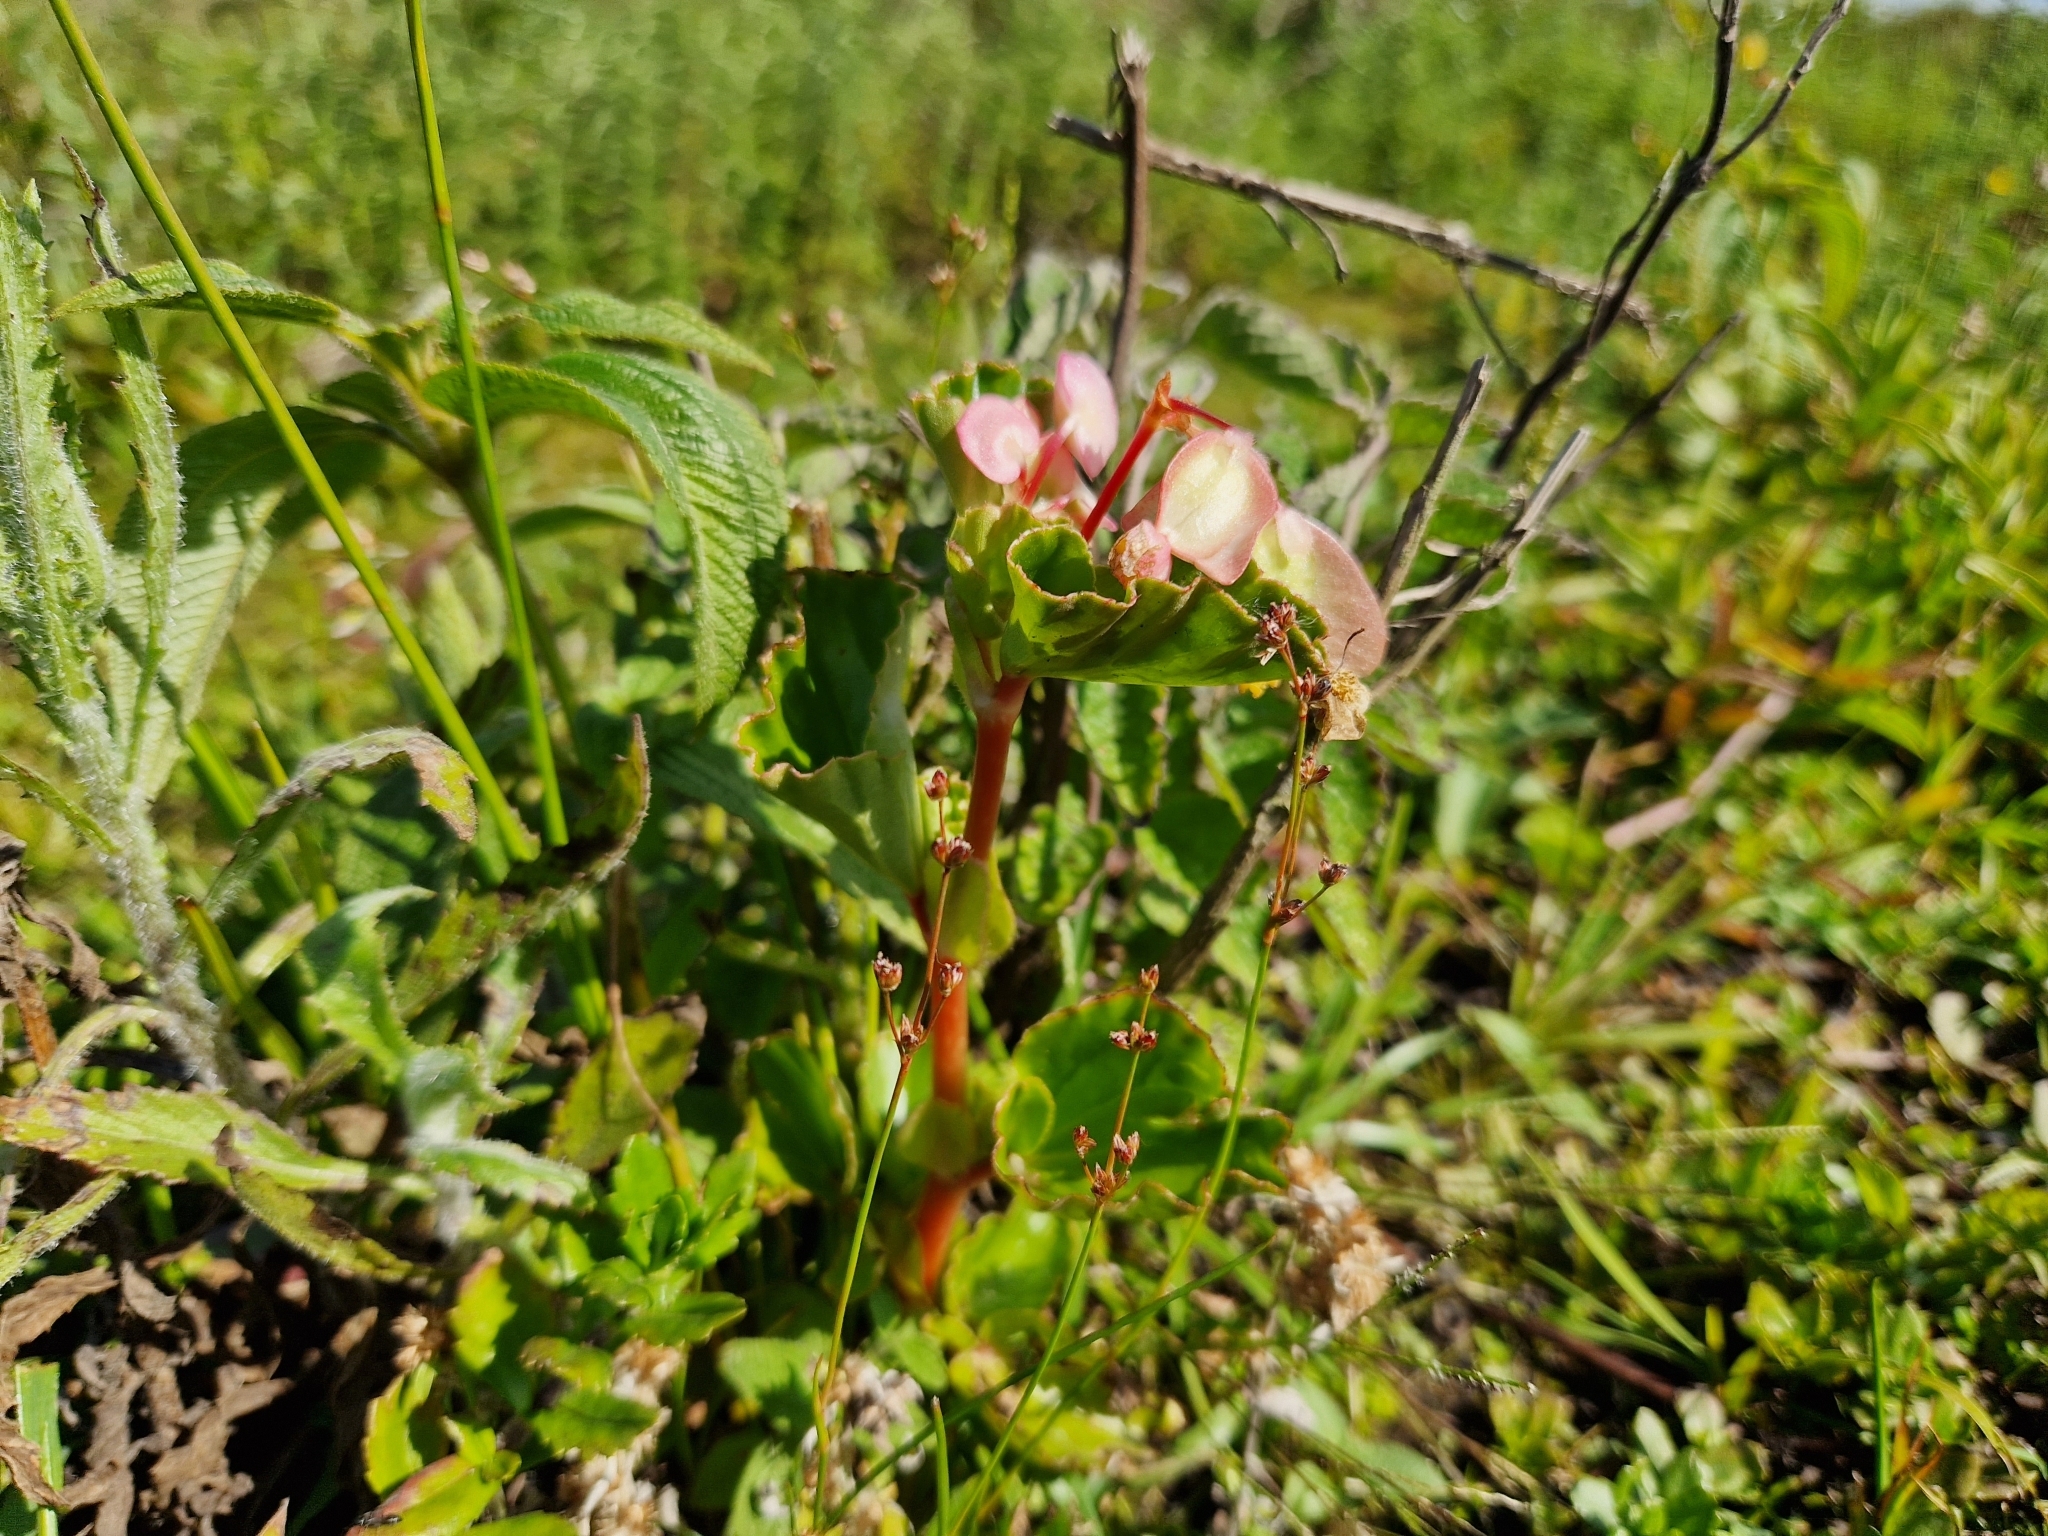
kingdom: Plantae
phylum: Tracheophyta
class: Magnoliopsida
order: Cucurbitales
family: Begoniaceae
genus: Begonia
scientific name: Begonia cucullata
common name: Clubbed begonia
